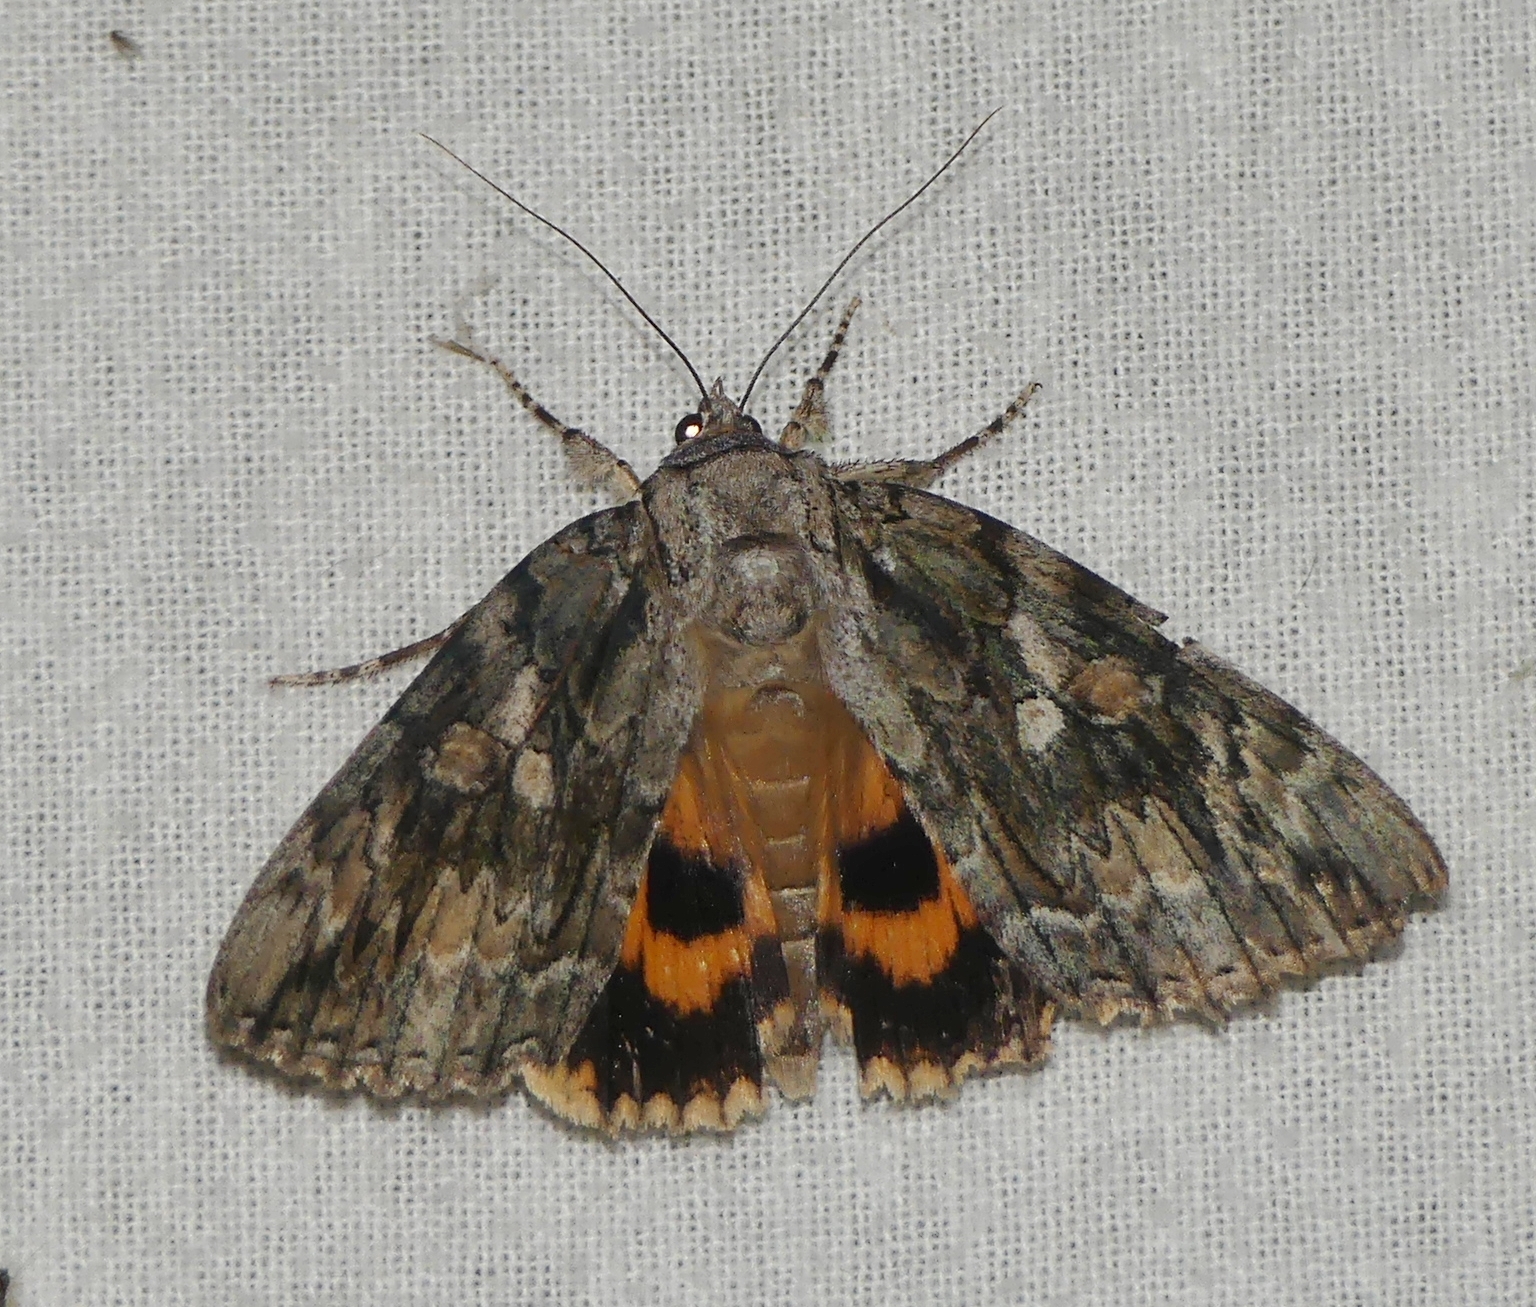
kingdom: Animalia
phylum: Arthropoda
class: Insecta
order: Lepidoptera
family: Erebidae
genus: Catocala
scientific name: Catocala neogama
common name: Bride underwing
